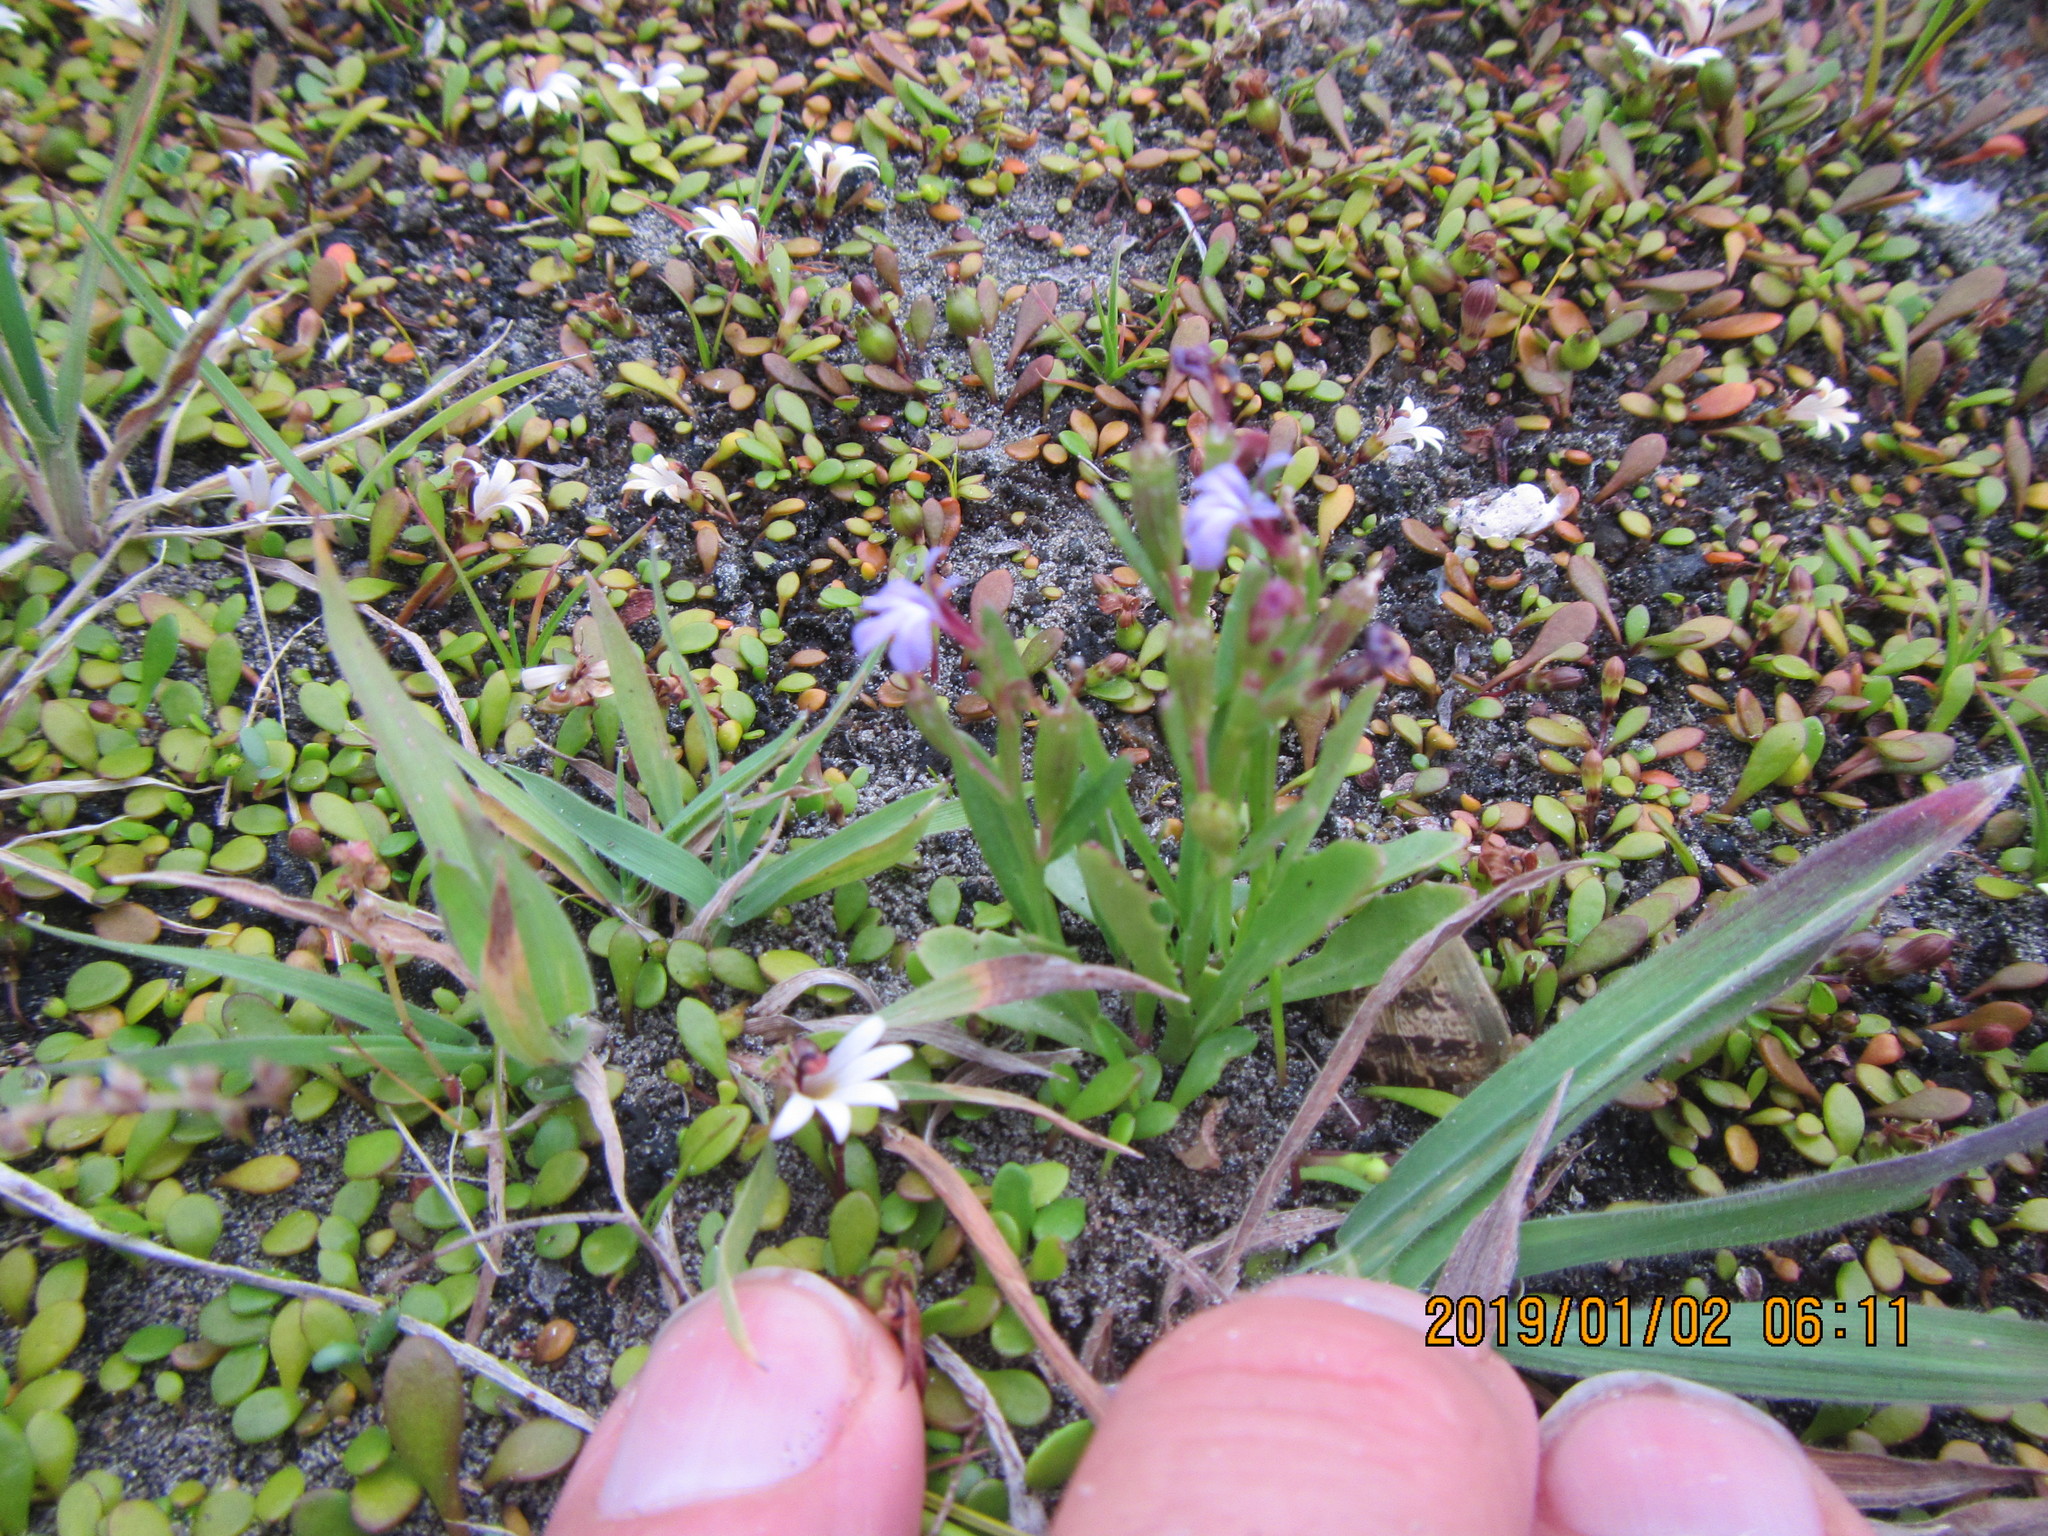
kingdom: Plantae
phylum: Tracheophyta
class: Magnoliopsida
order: Asterales
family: Campanulaceae
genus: Lobelia
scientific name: Lobelia anceps
